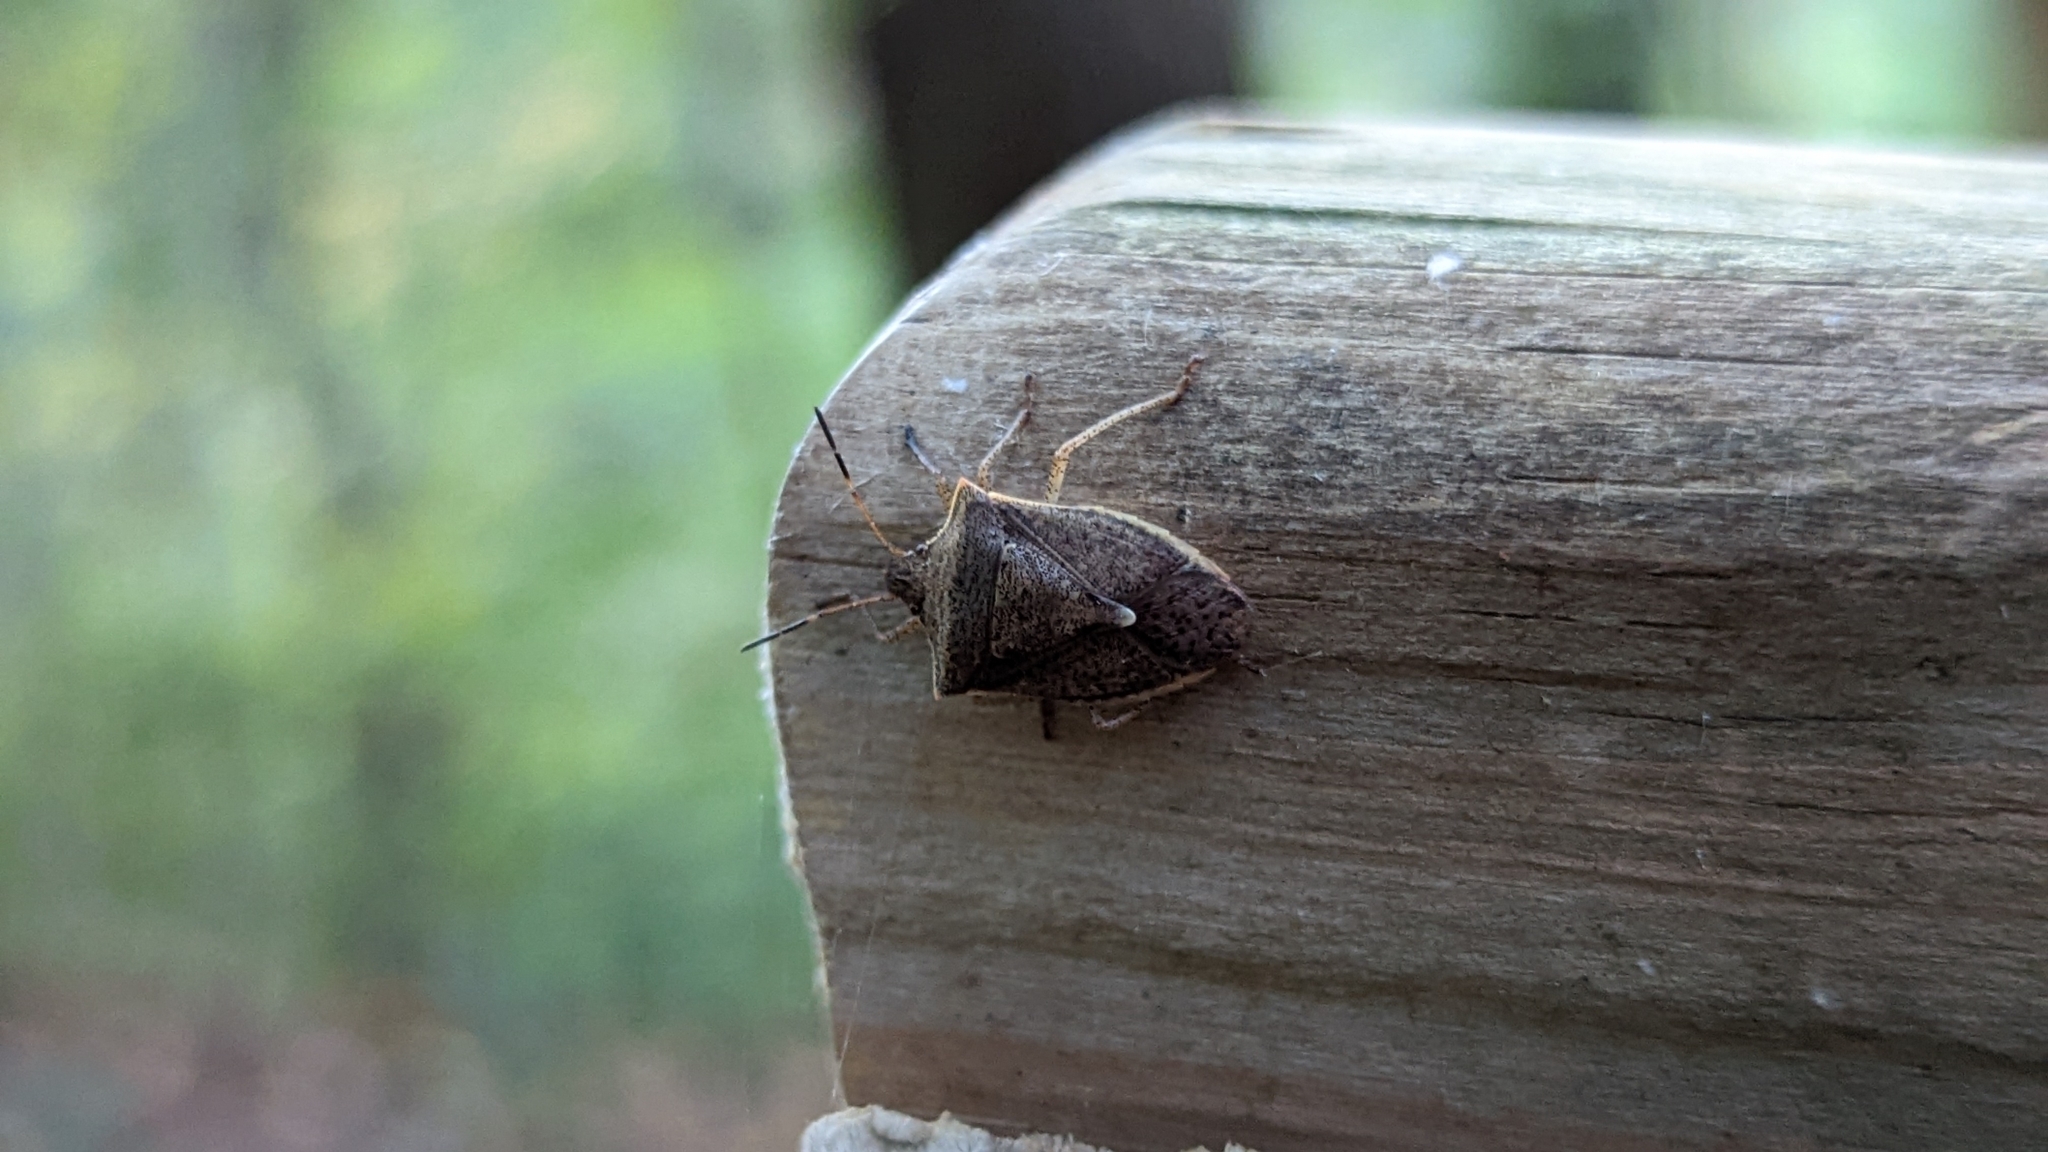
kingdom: Animalia
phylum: Arthropoda
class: Insecta
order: Hemiptera
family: Pentatomidae
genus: Euschistus
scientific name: Euschistus
